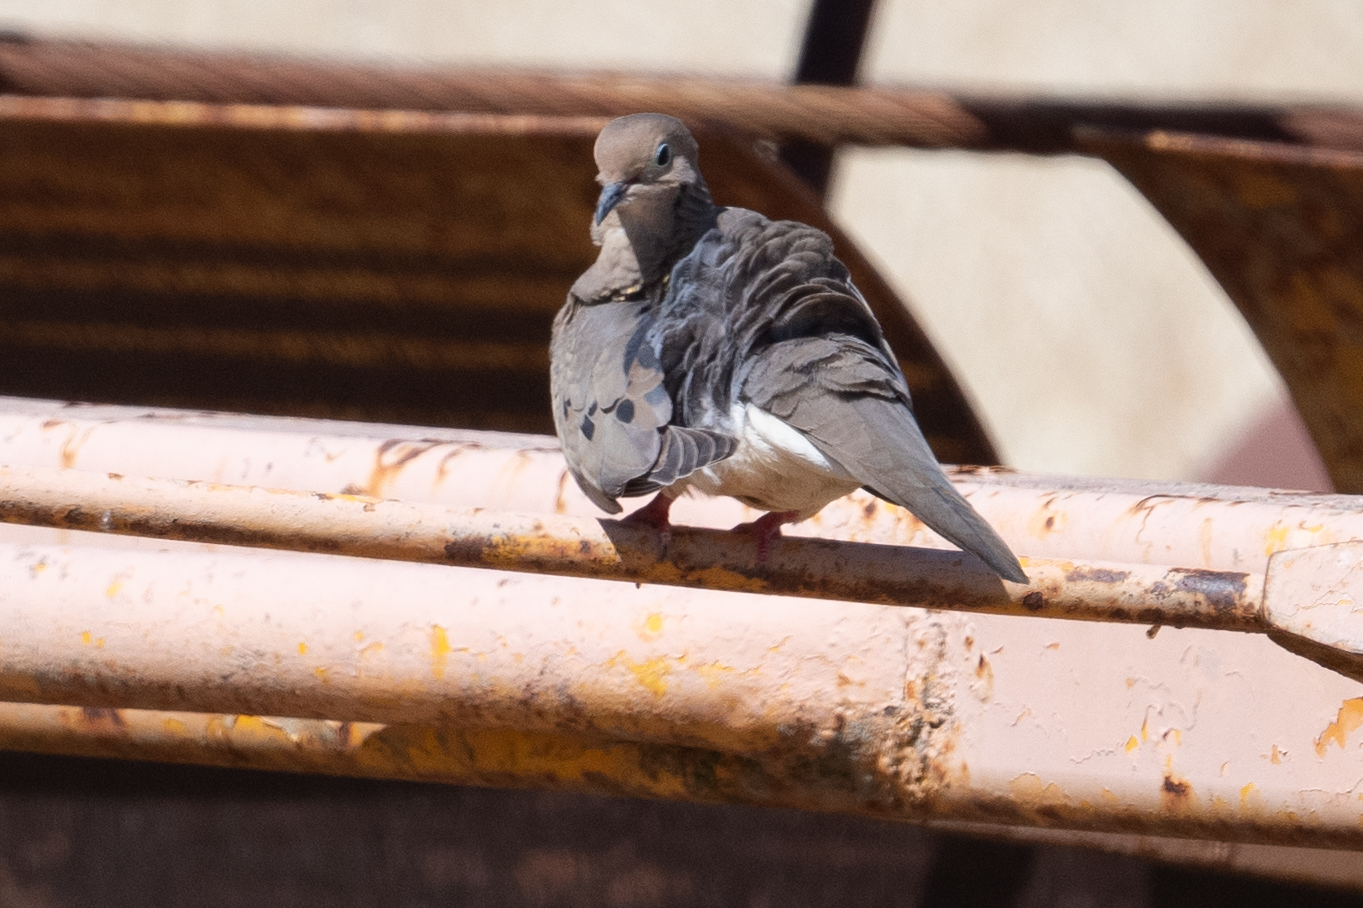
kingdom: Animalia
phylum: Chordata
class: Aves
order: Columbiformes
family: Columbidae
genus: Zenaida
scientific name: Zenaida macroura
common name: Mourning dove
